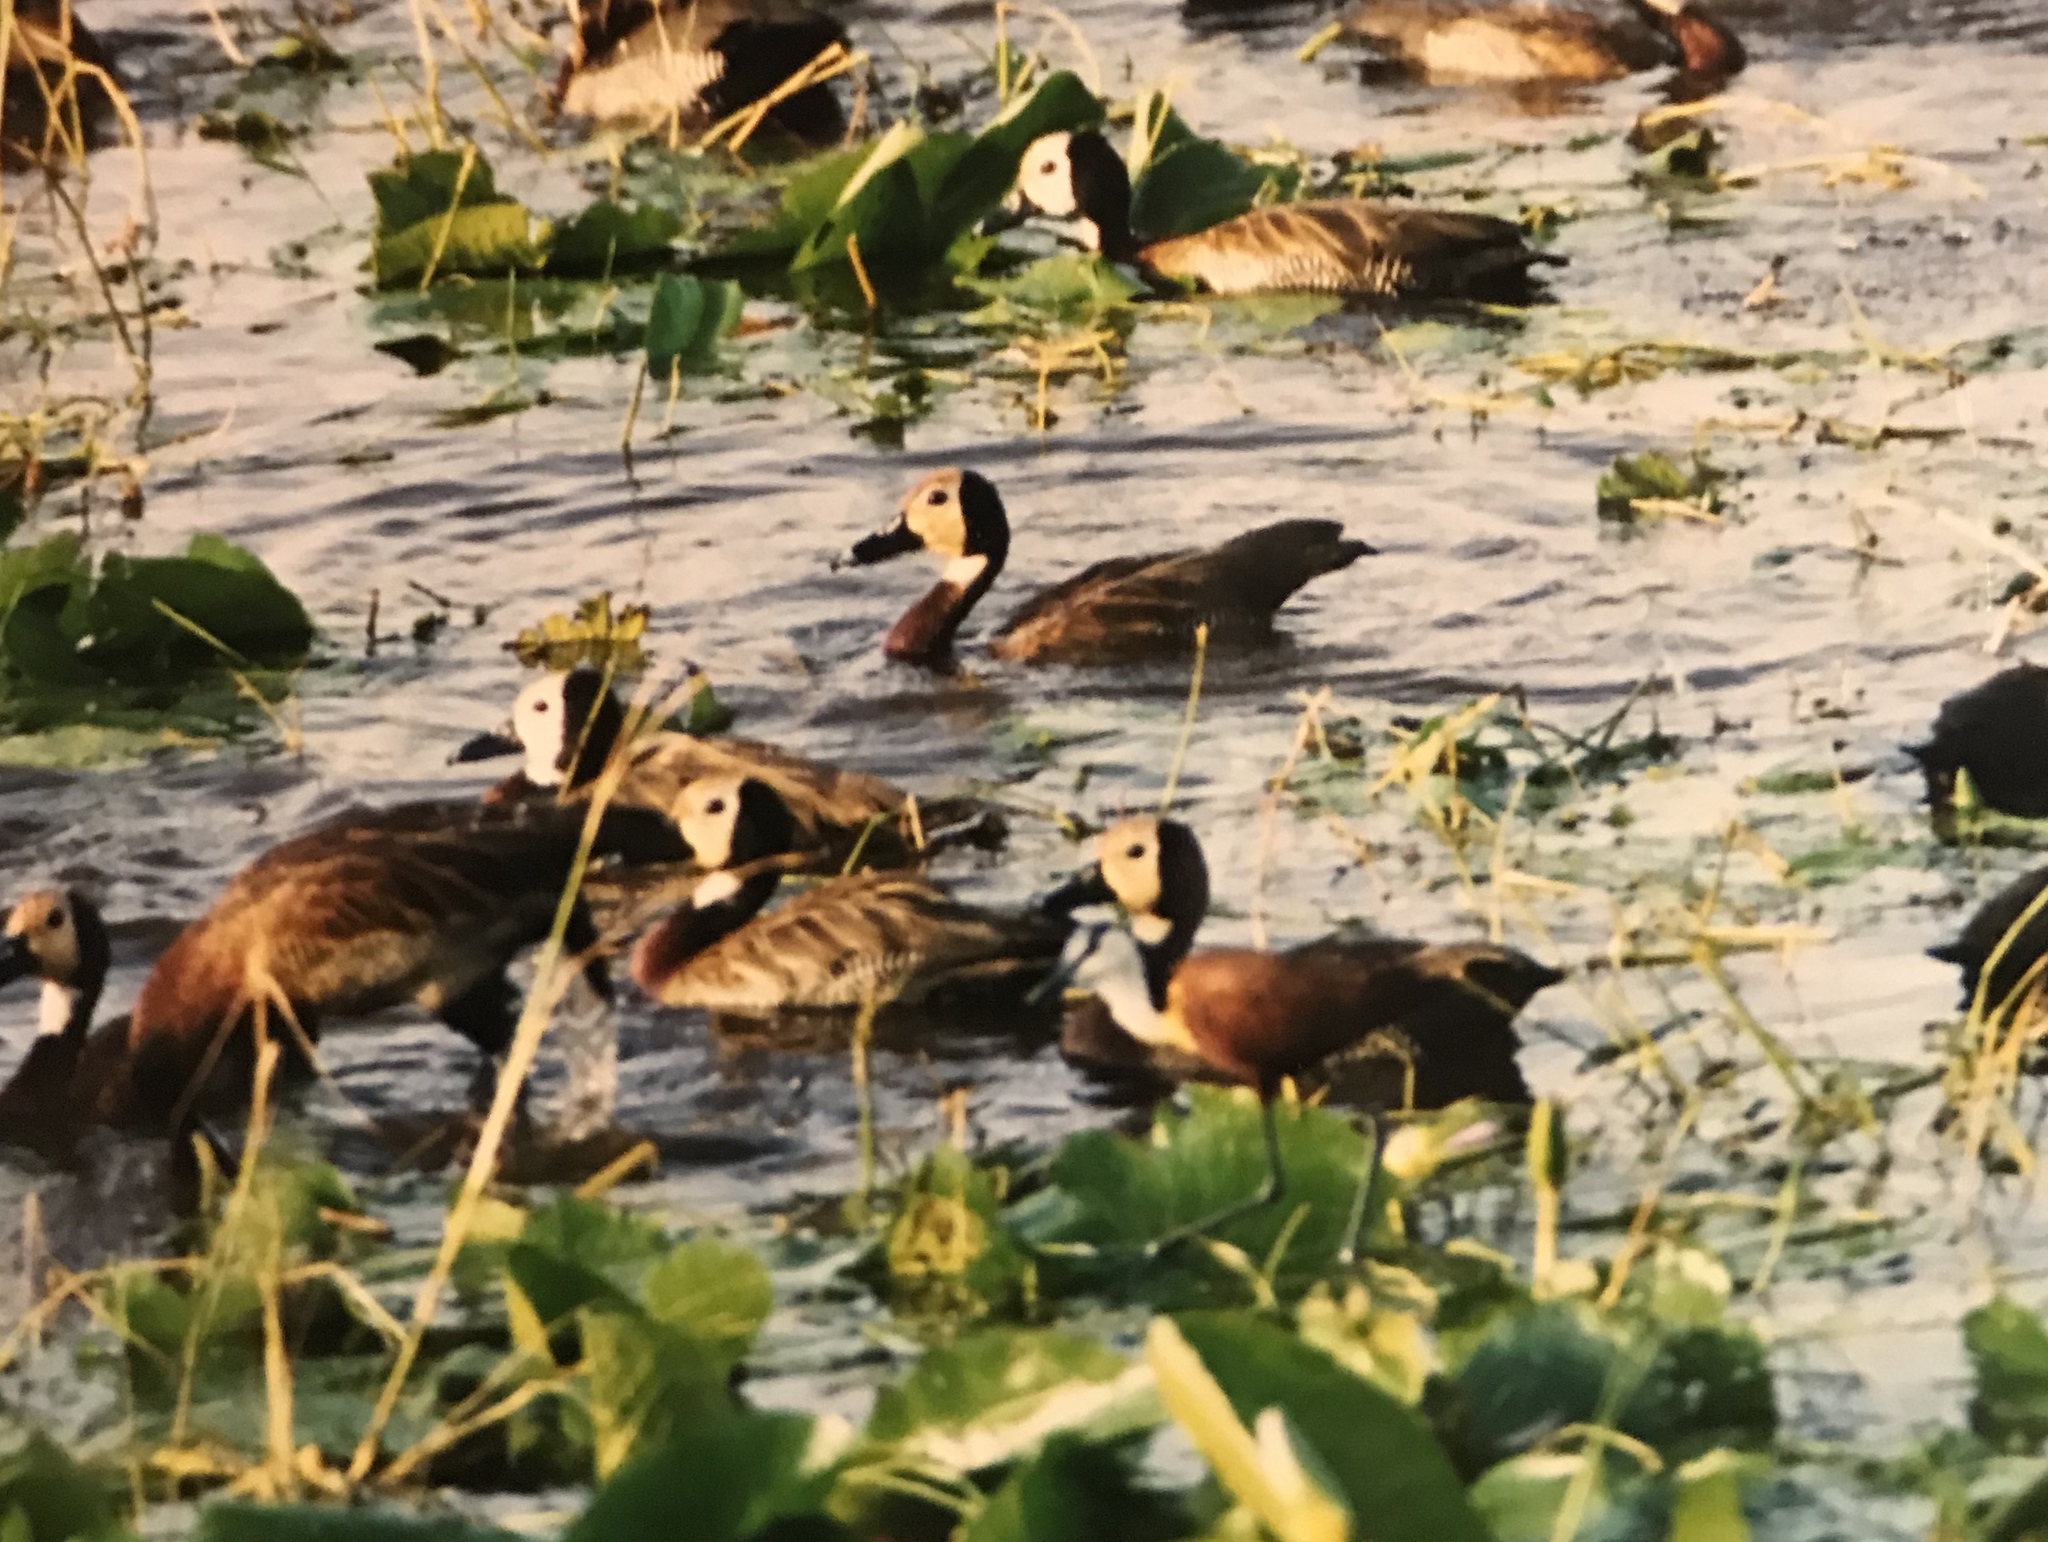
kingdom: Animalia
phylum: Chordata
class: Aves
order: Anseriformes
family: Anatidae
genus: Dendrocygna
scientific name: Dendrocygna viduata
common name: White-faced whistling duck
